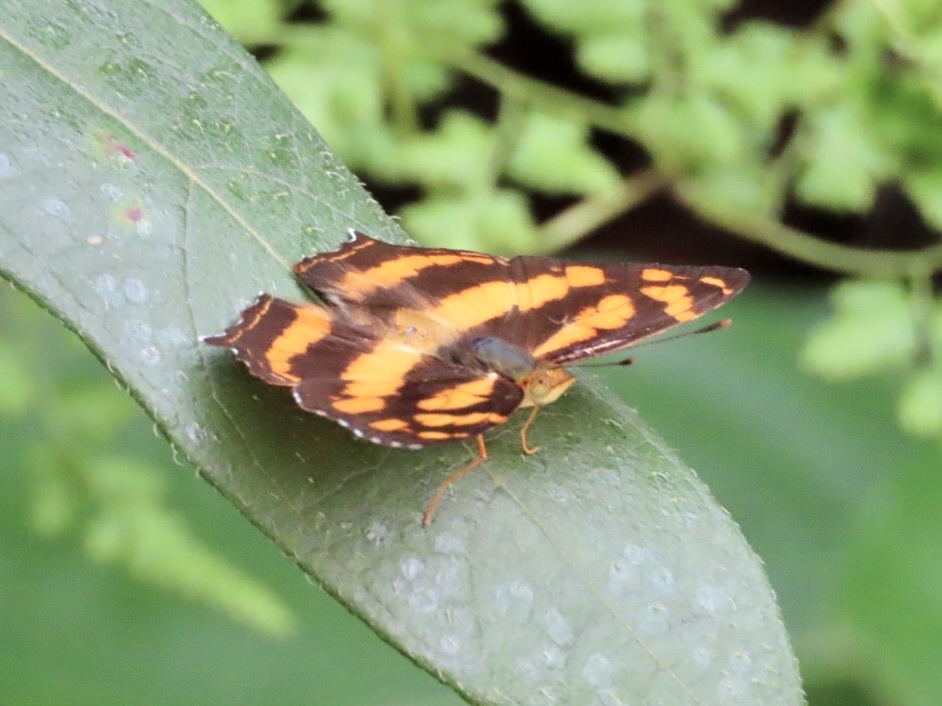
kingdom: Animalia
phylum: Arthropoda
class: Insecta
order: Lepidoptera
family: Nymphalidae
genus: Symbrenthia
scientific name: Symbrenthia hypselis
